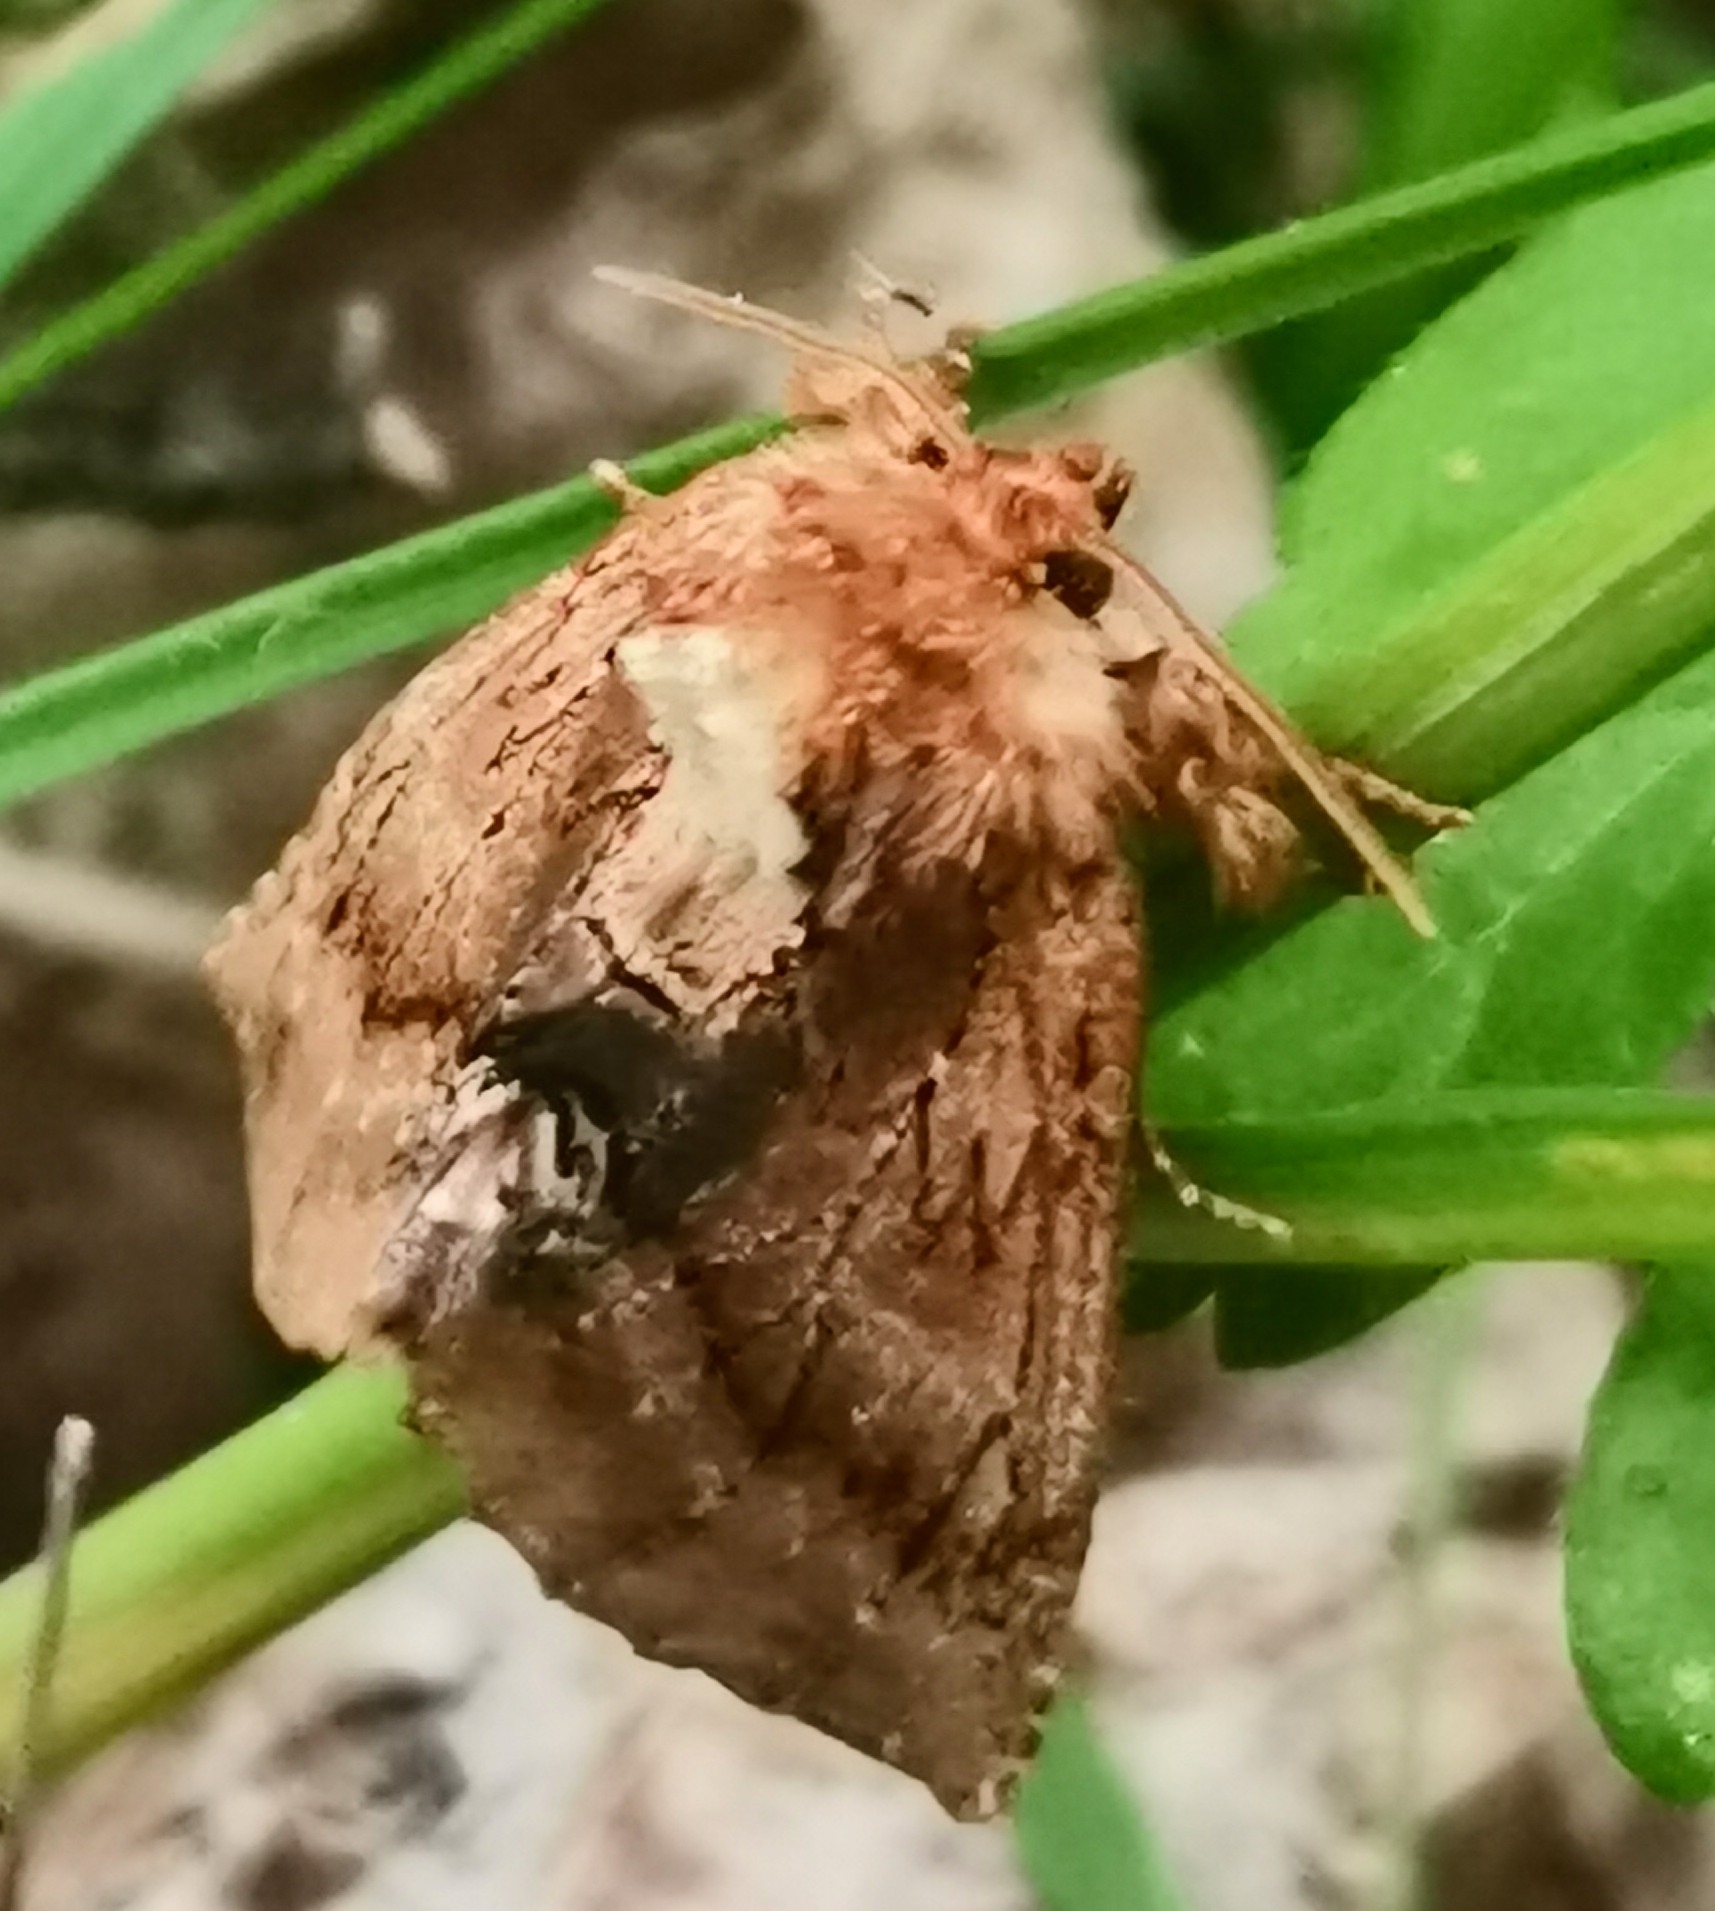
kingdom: Animalia
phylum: Arthropoda
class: Insecta
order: Lepidoptera
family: Notodontidae
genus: Ptilodon
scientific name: Ptilodon capucina
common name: Coxcomb prominent
